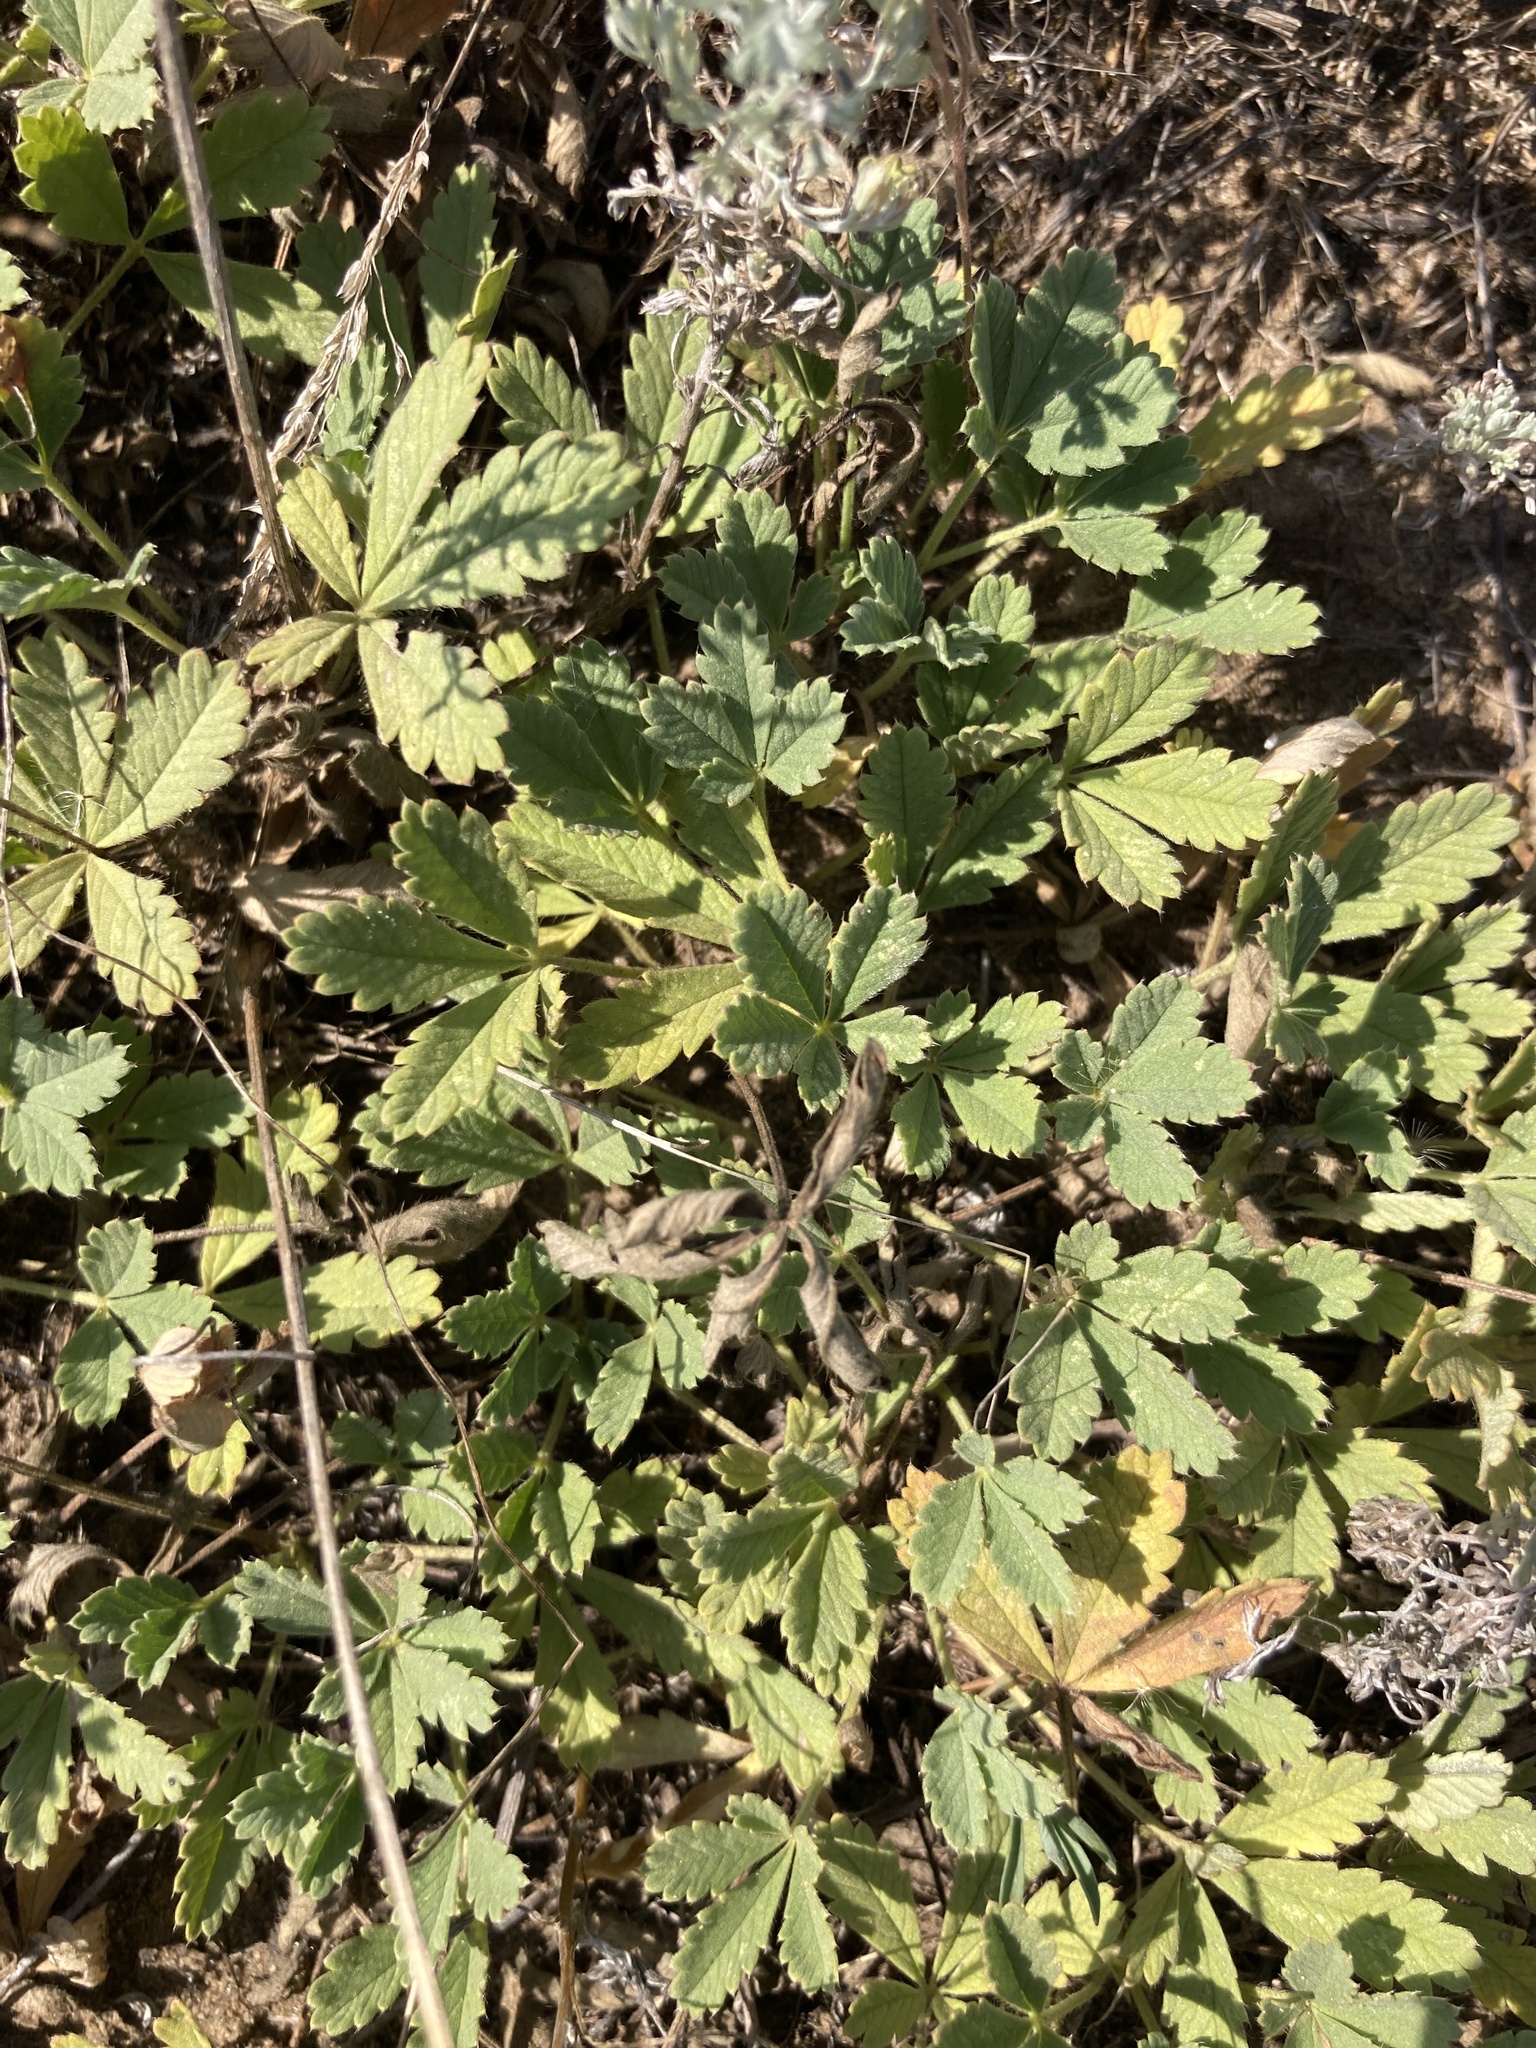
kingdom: Plantae
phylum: Tracheophyta
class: Magnoliopsida
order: Rosales
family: Rosaceae
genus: Potentilla
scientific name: Potentilla incana
